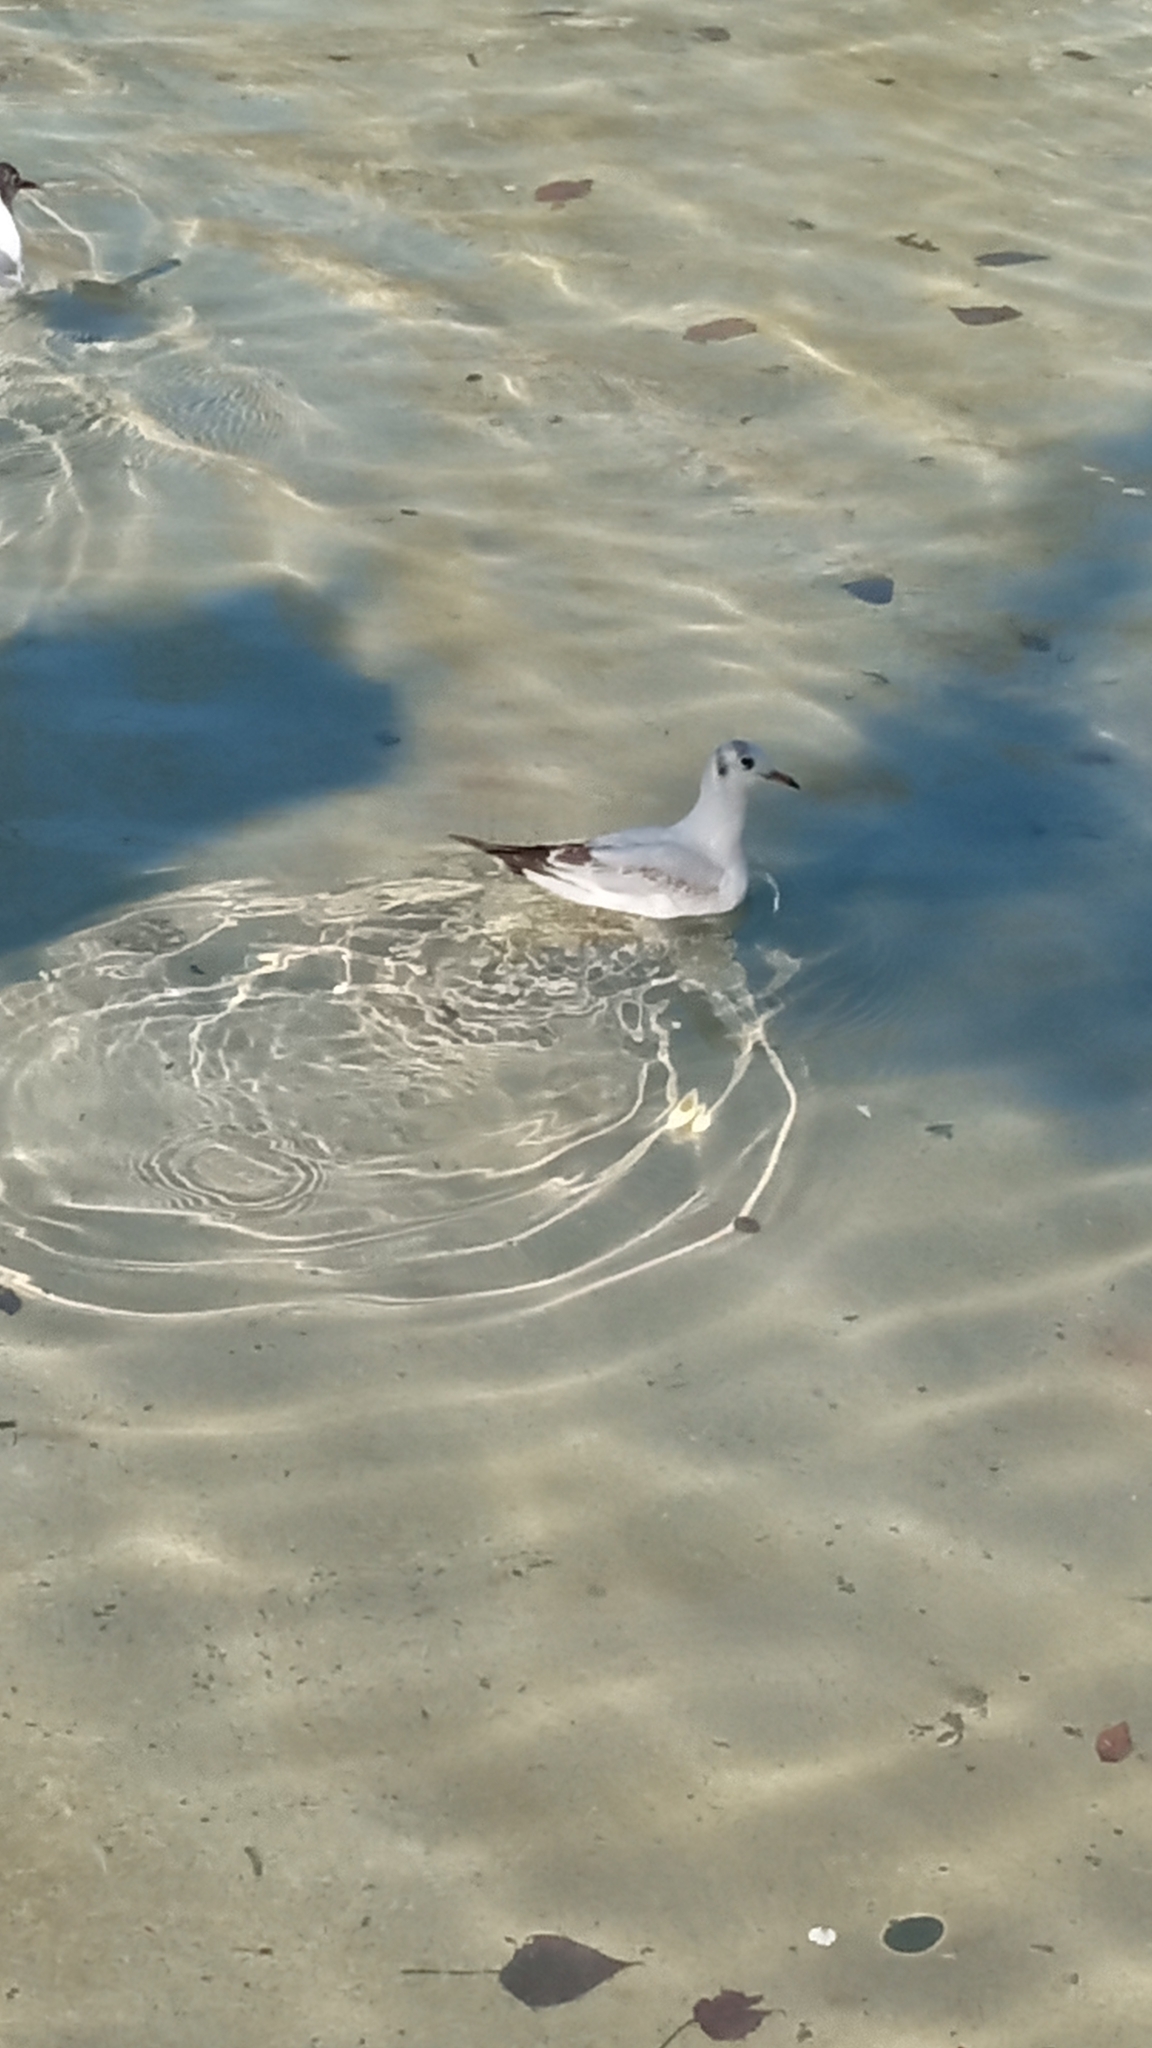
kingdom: Animalia
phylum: Chordata
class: Aves
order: Charadriiformes
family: Laridae
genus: Chroicocephalus
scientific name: Chroicocephalus ridibundus
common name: Black-headed gull
